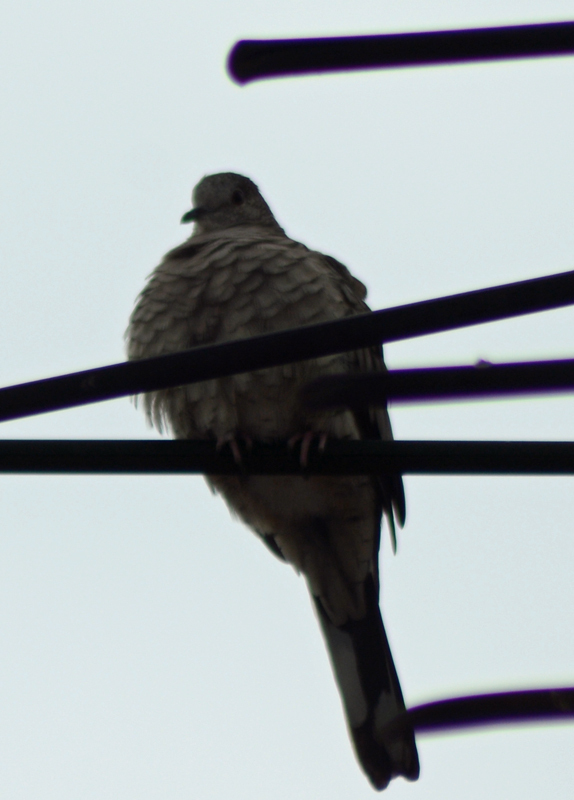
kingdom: Animalia
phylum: Chordata
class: Aves
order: Columbiformes
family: Columbidae
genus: Columbina
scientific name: Columbina inca
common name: Inca dove
